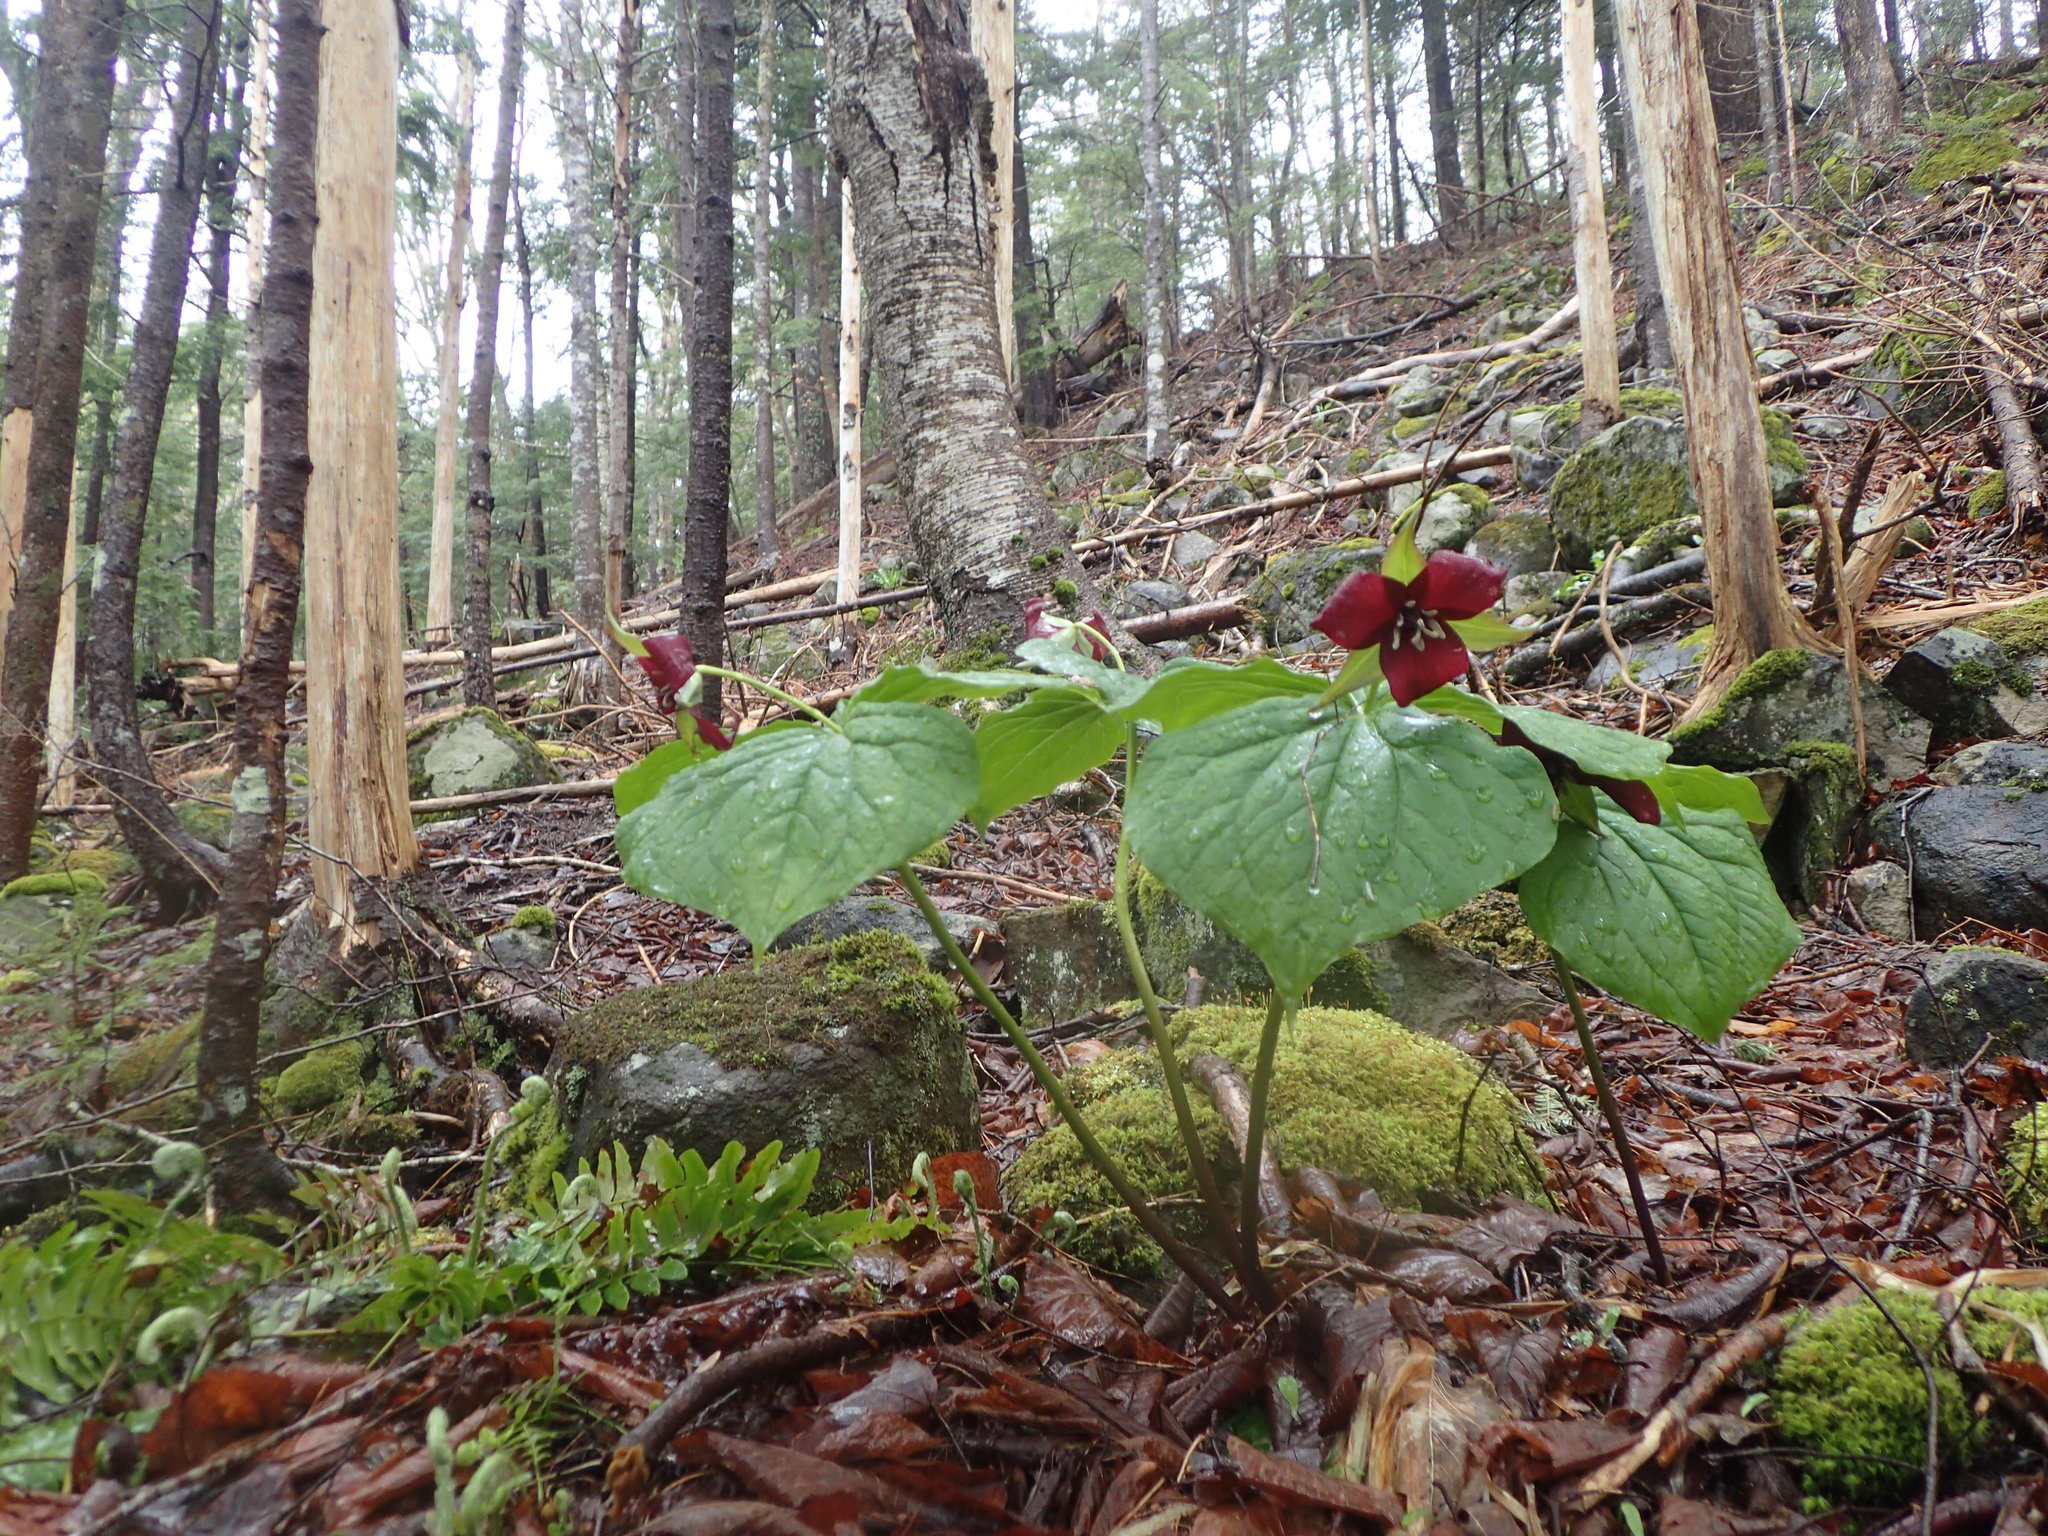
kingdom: Plantae
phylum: Tracheophyta
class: Liliopsida
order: Liliales
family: Melanthiaceae
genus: Trillium
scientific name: Trillium erectum
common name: Purple trillium
